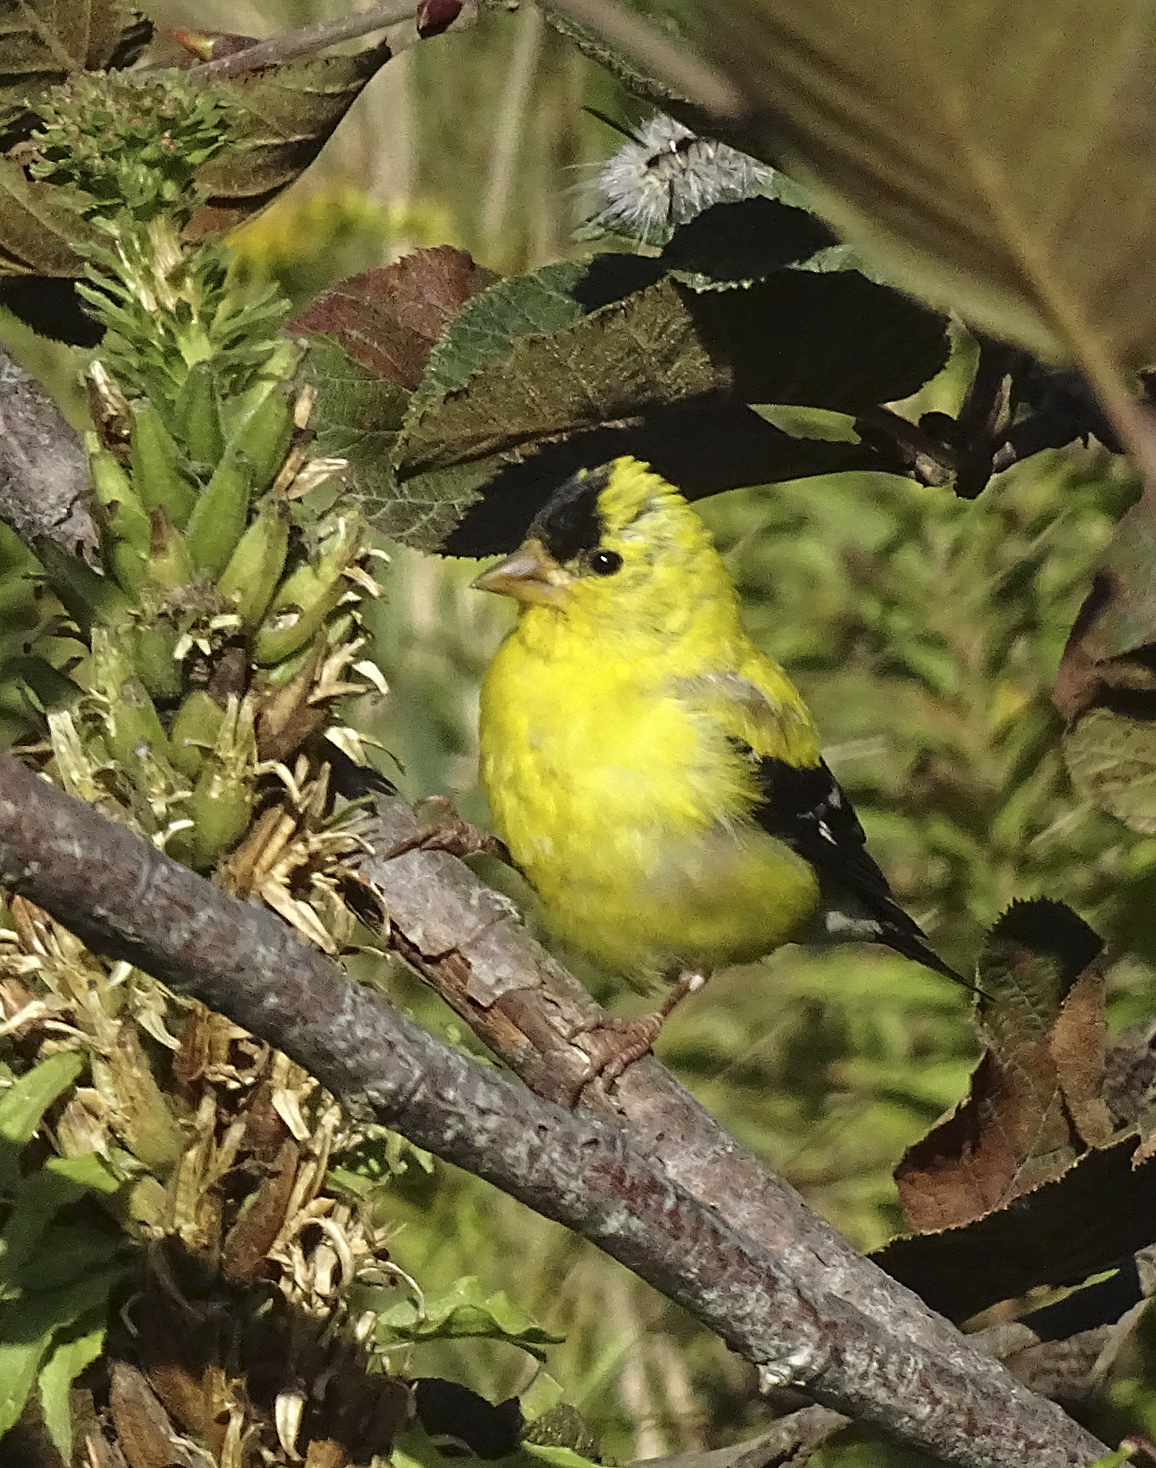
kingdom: Animalia
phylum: Chordata
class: Aves
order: Passeriformes
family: Fringillidae
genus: Spinus
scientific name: Spinus tristis
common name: American goldfinch
